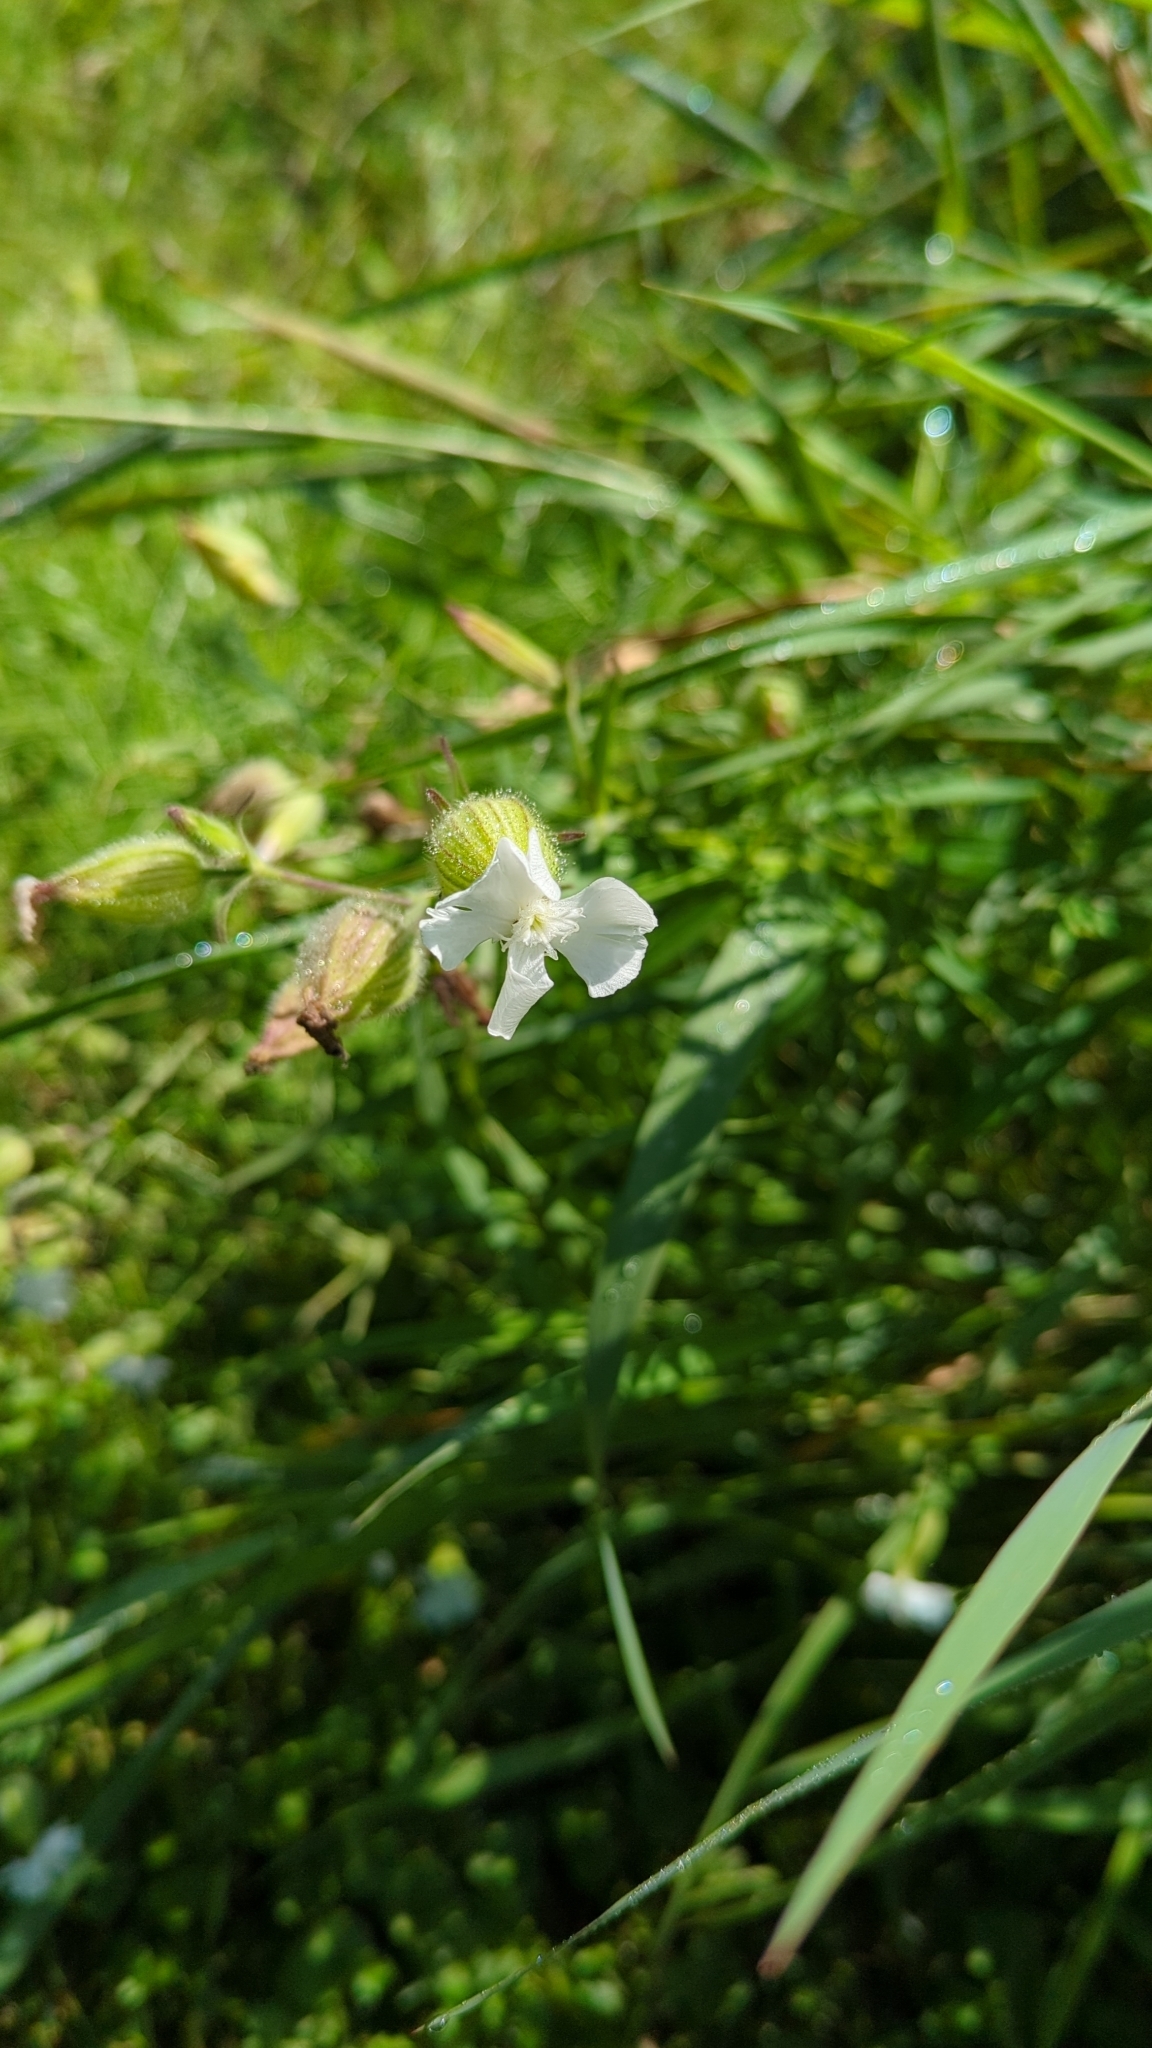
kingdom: Plantae
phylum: Tracheophyta
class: Magnoliopsida
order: Caryophyllales
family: Caryophyllaceae
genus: Silene
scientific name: Silene vulgaris
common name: Bladder campion
